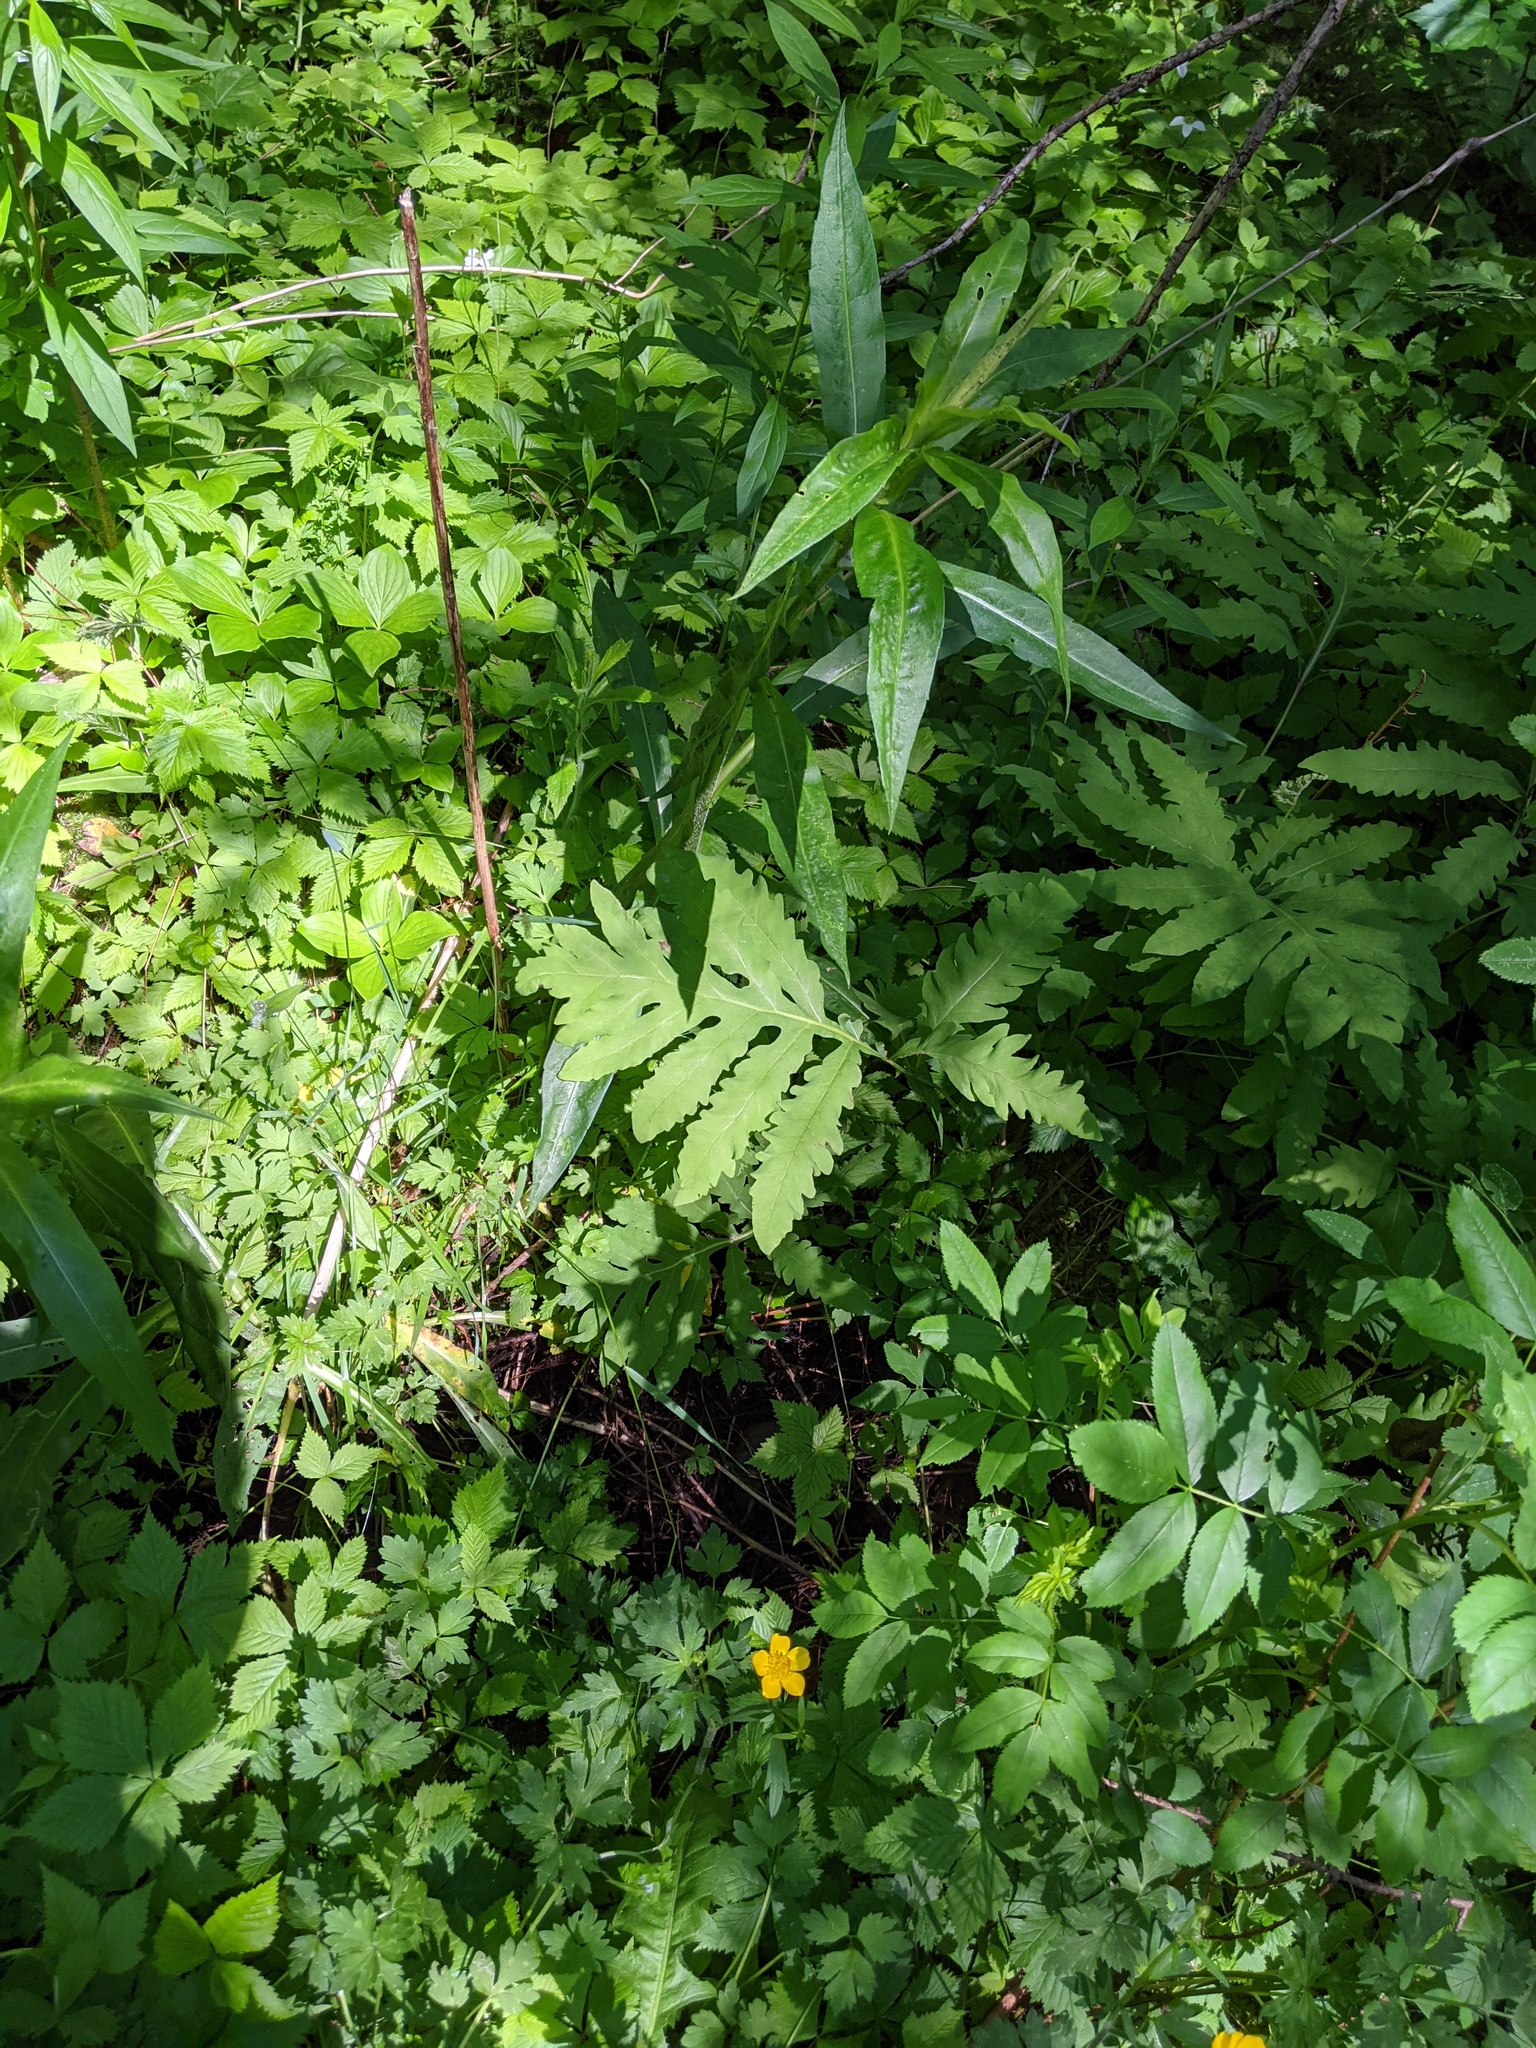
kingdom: Plantae
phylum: Tracheophyta
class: Polypodiopsida
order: Polypodiales
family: Onocleaceae
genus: Onoclea
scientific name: Onoclea sensibilis
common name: Sensitive fern
